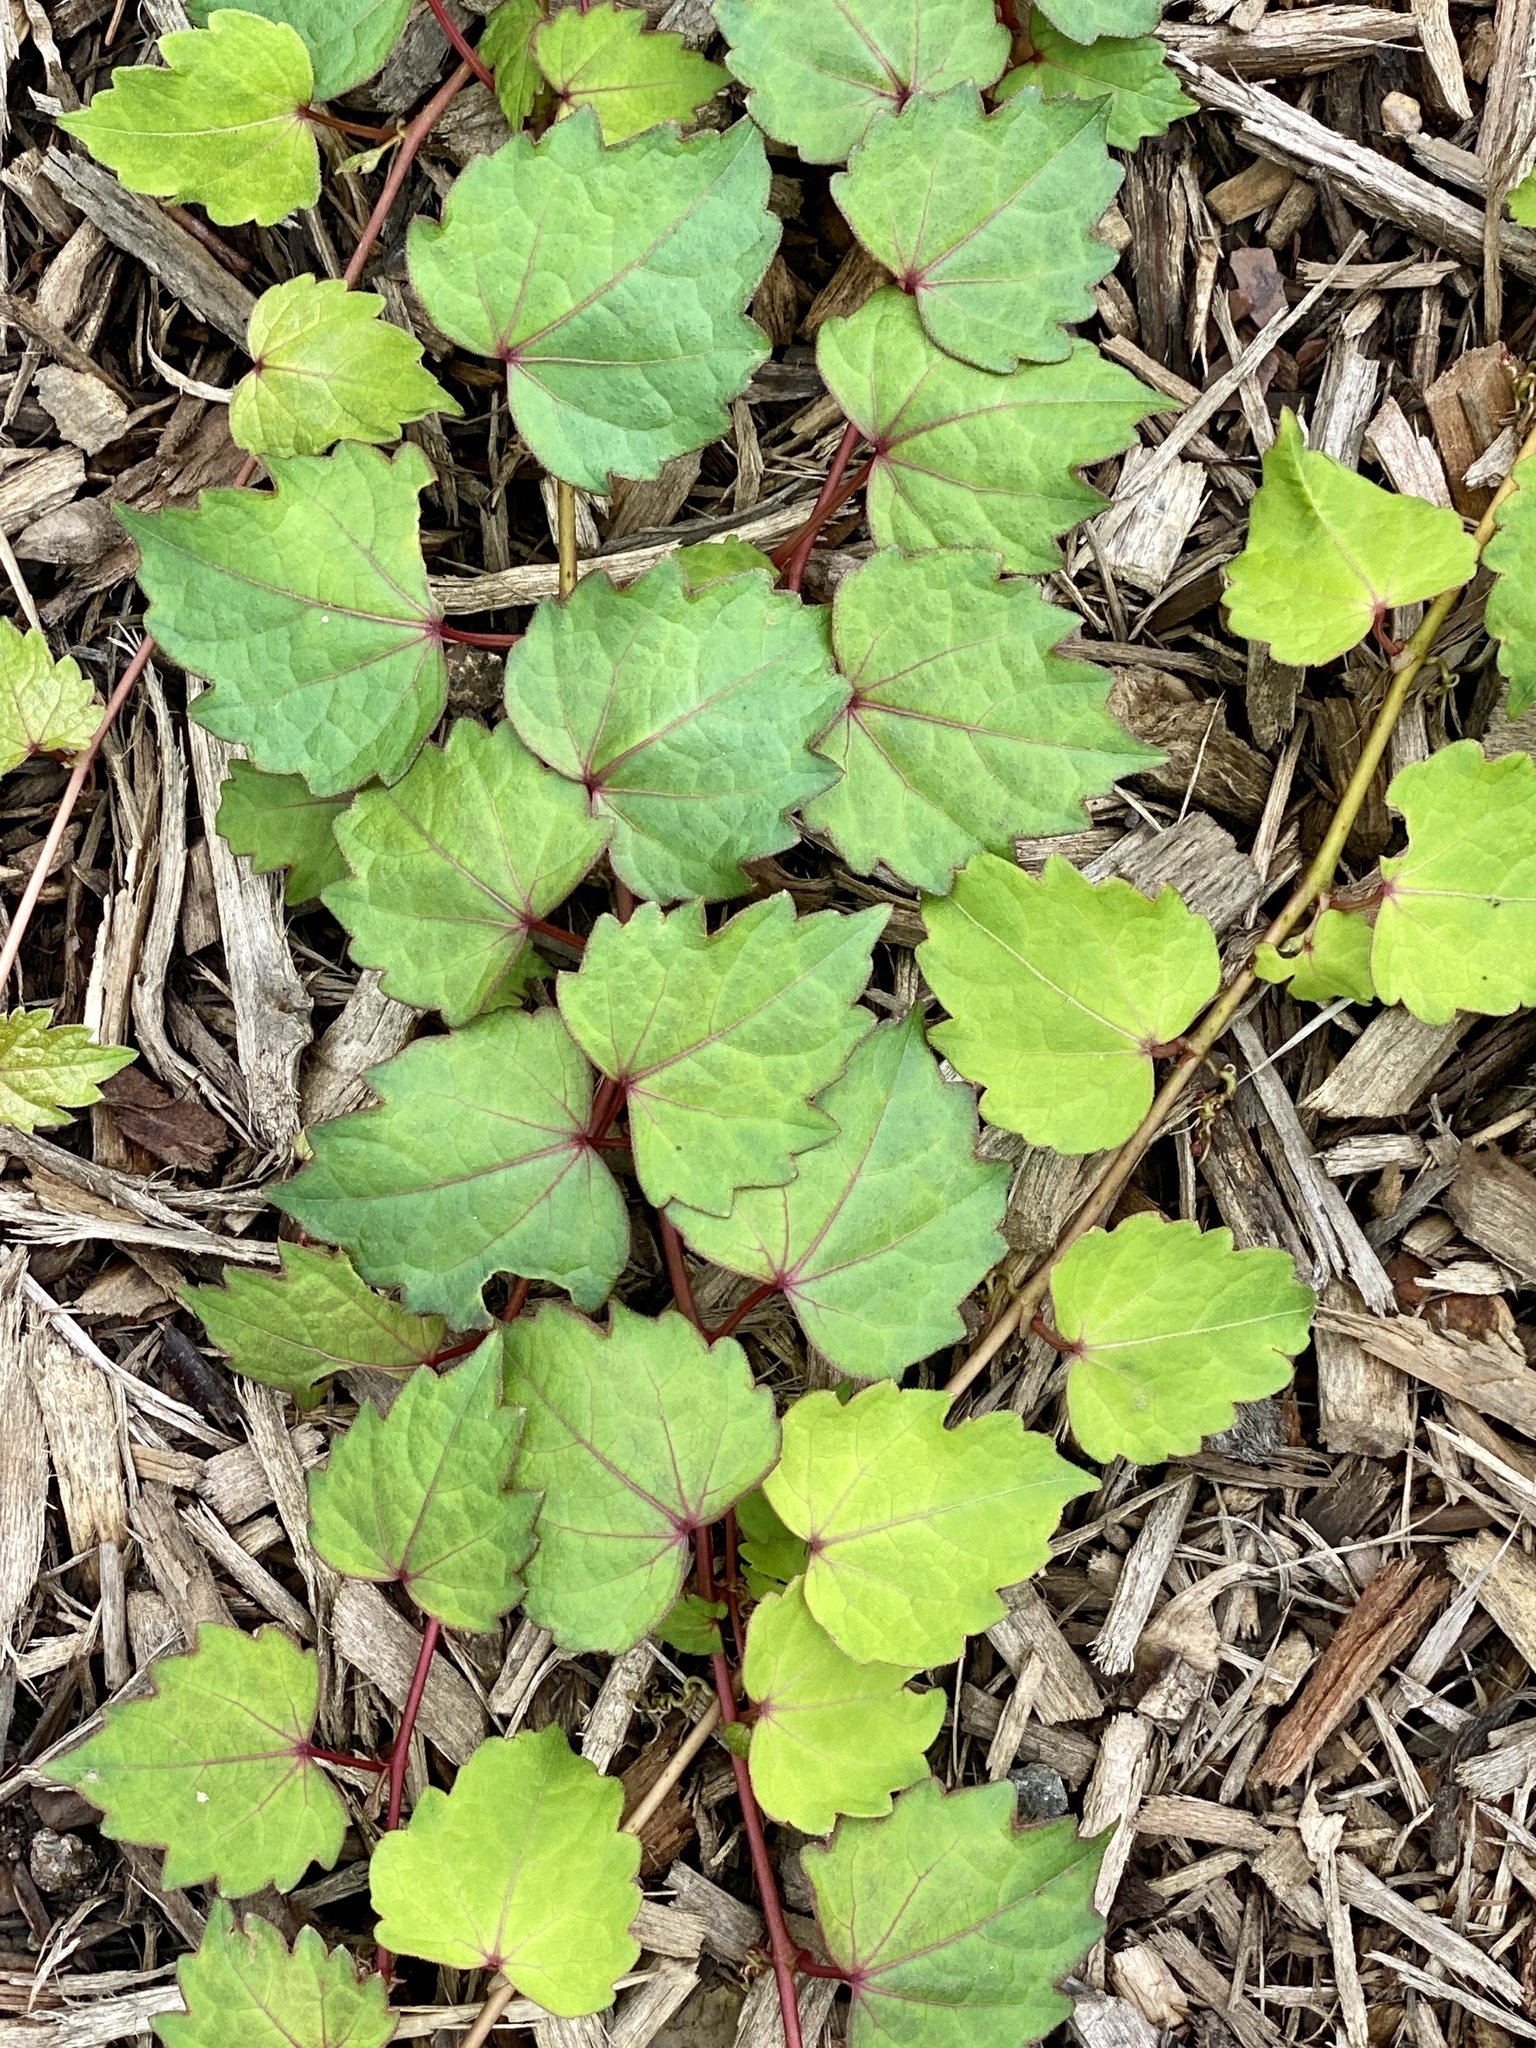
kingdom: Plantae
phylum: Tracheophyta
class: Magnoliopsida
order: Vitales
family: Vitaceae
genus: Parthenocissus
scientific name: Parthenocissus tricuspidata
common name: Boston ivy
